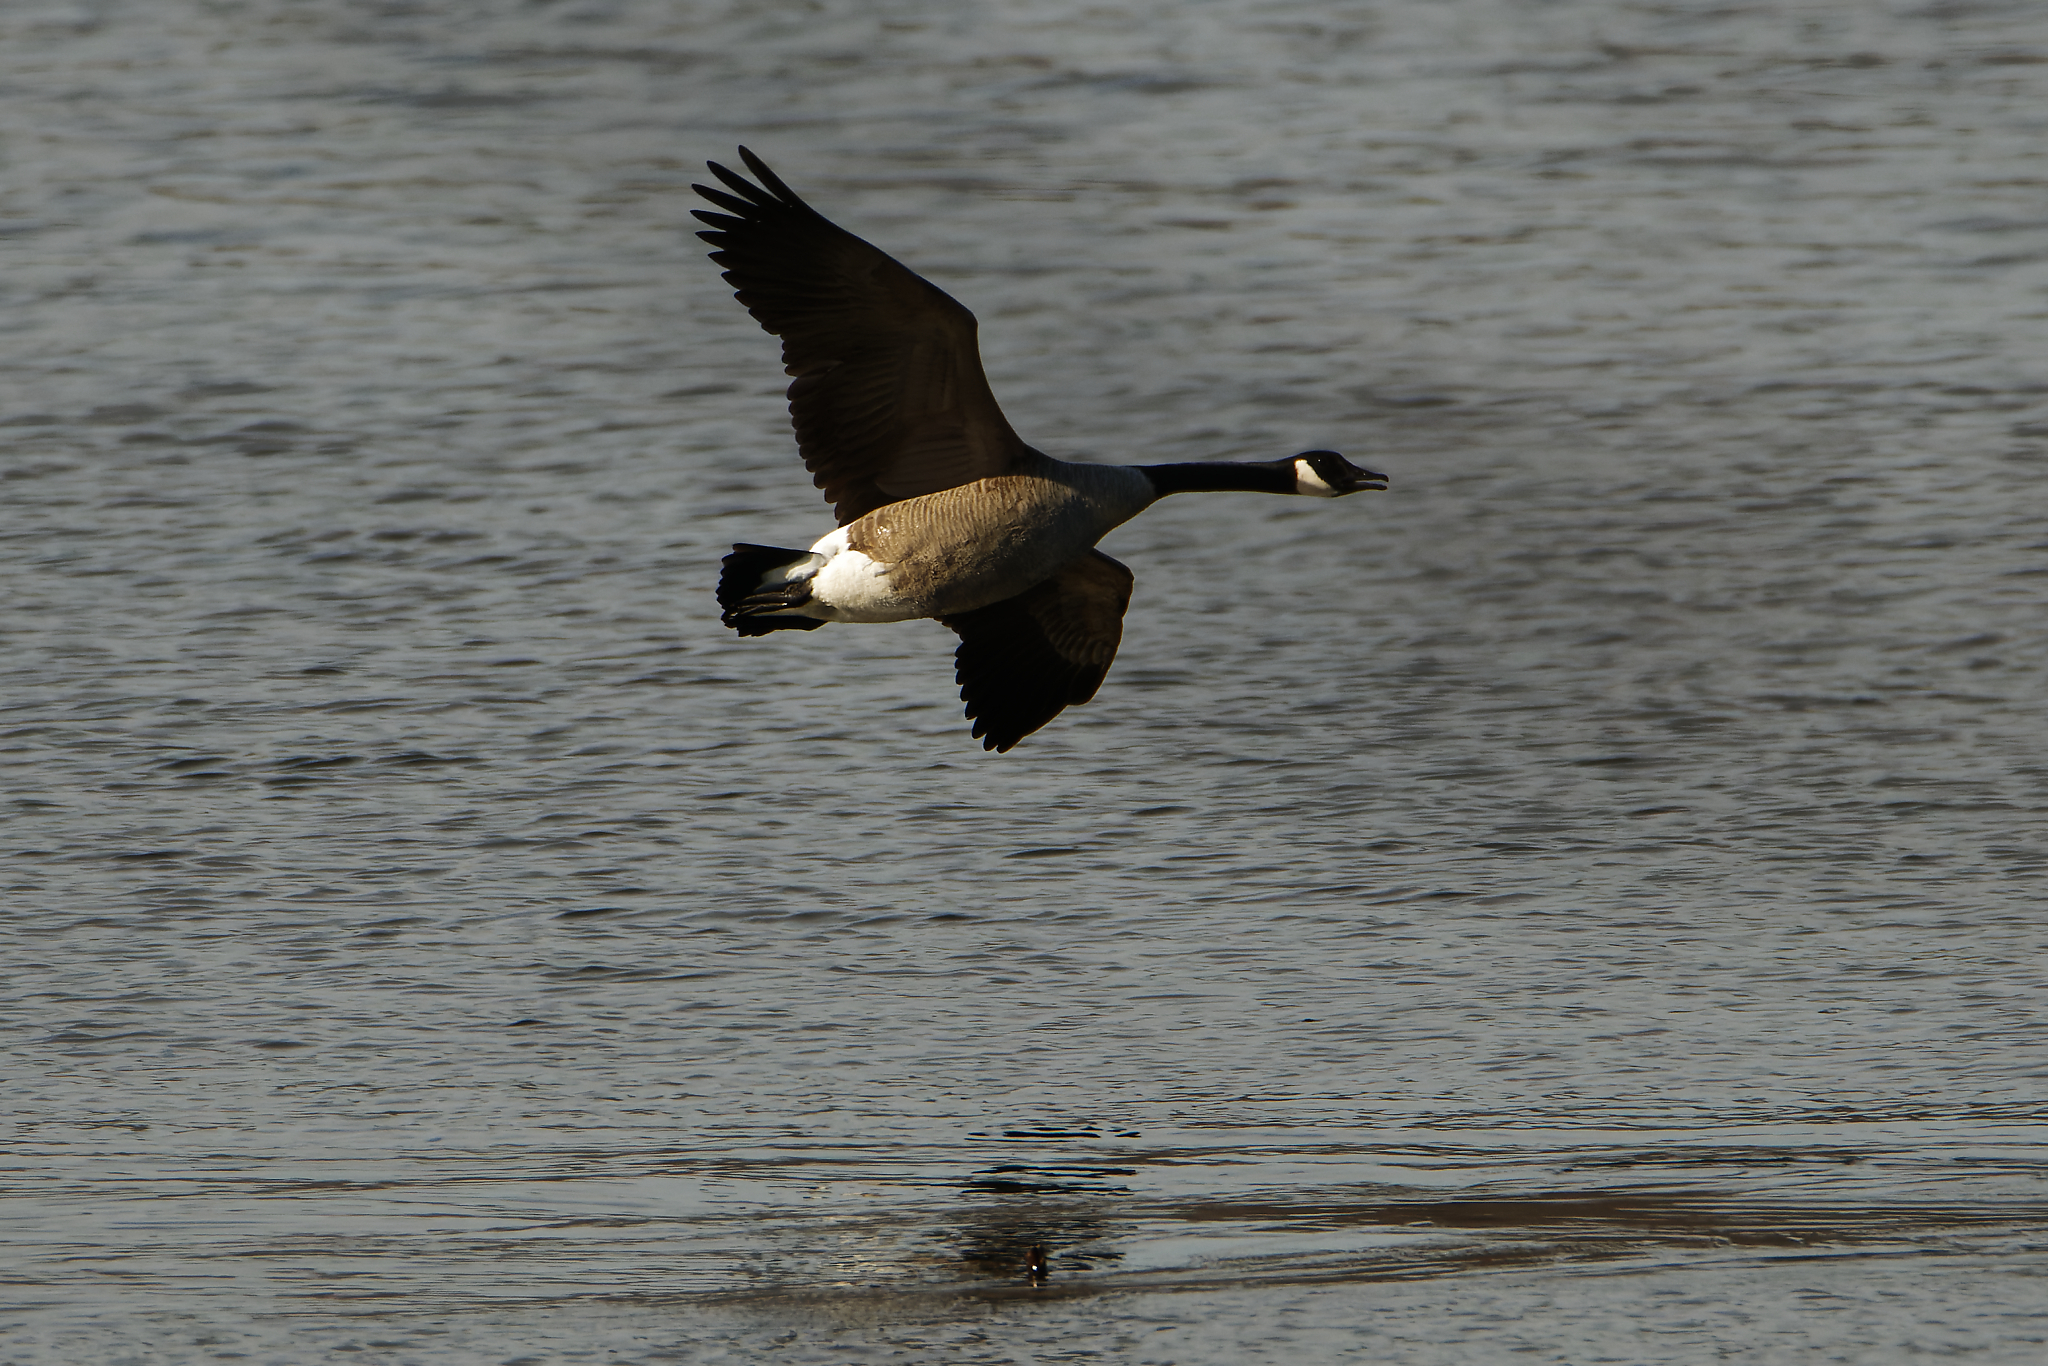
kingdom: Animalia
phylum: Chordata
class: Aves
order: Anseriformes
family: Anatidae
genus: Branta
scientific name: Branta canadensis
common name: Canada goose
